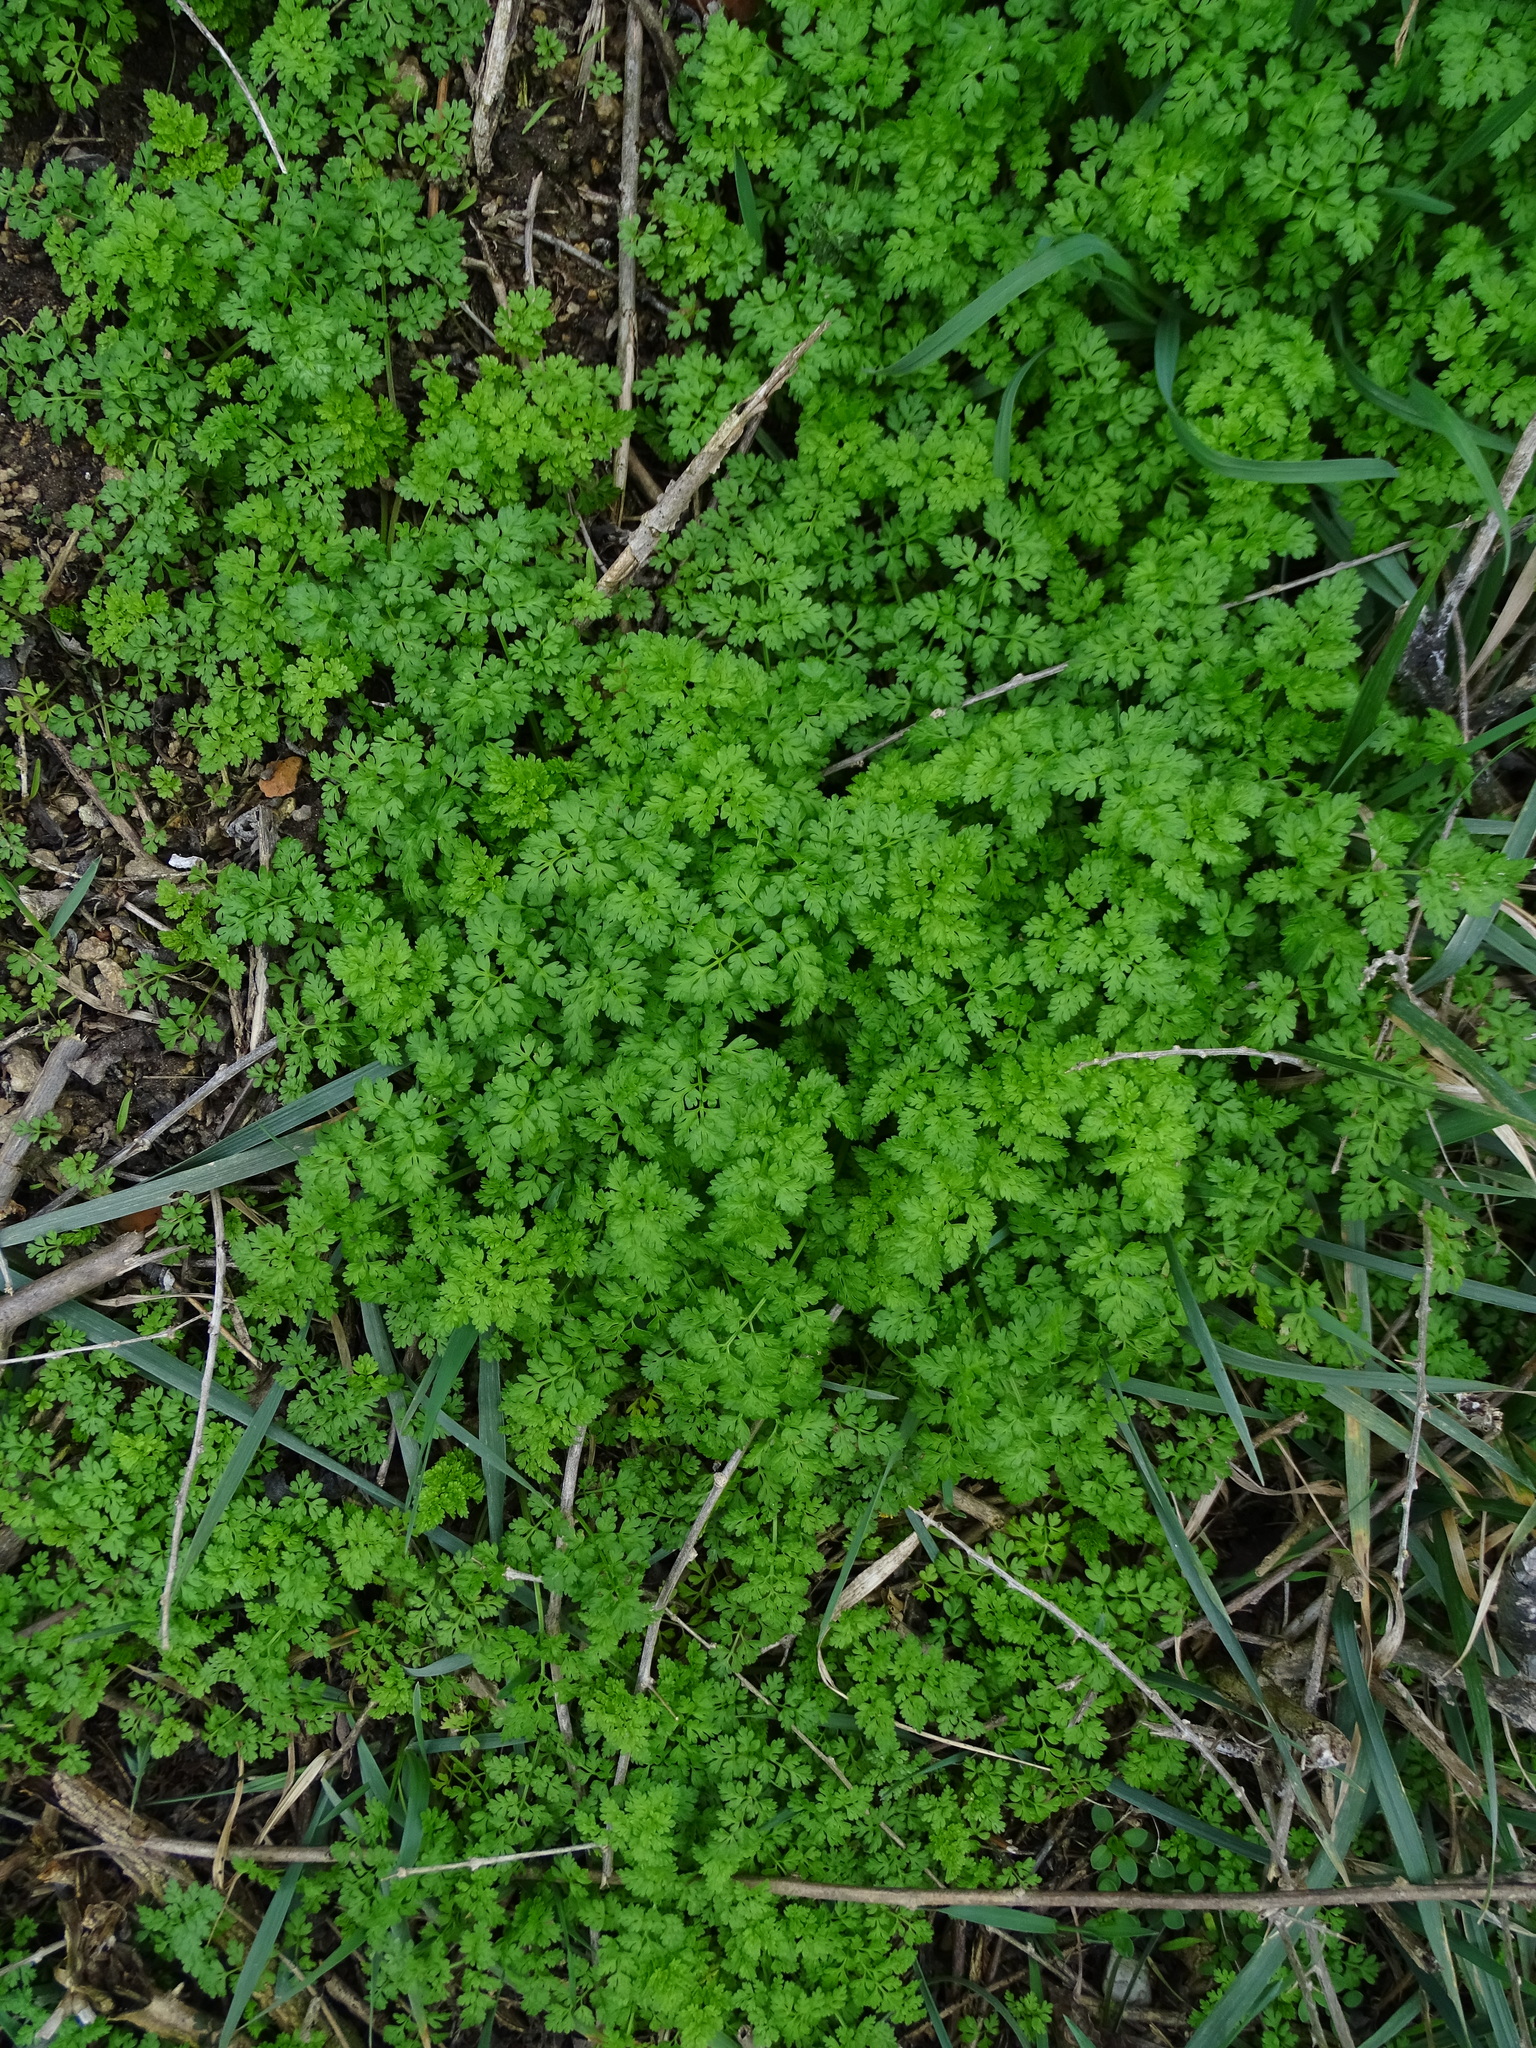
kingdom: Plantae
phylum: Tracheophyta
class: Magnoliopsida
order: Apiales
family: Apiaceae
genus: Anthriscus
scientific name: Anthriscus cerefolium
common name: Garden chervil
